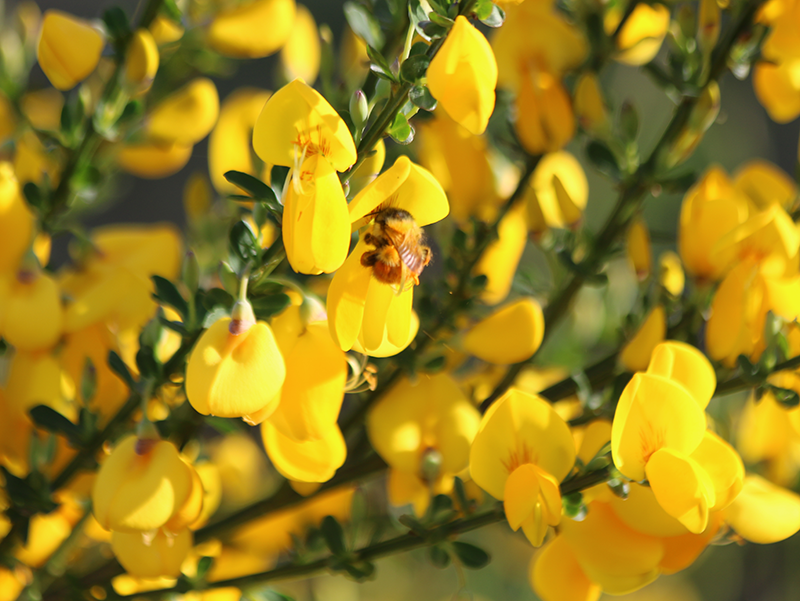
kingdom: Animalia
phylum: Arthropoda
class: Insecta
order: Hymenoptera
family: Apidae
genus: Bombus
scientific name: Bombus melanopygus
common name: Black tail bumble bee
